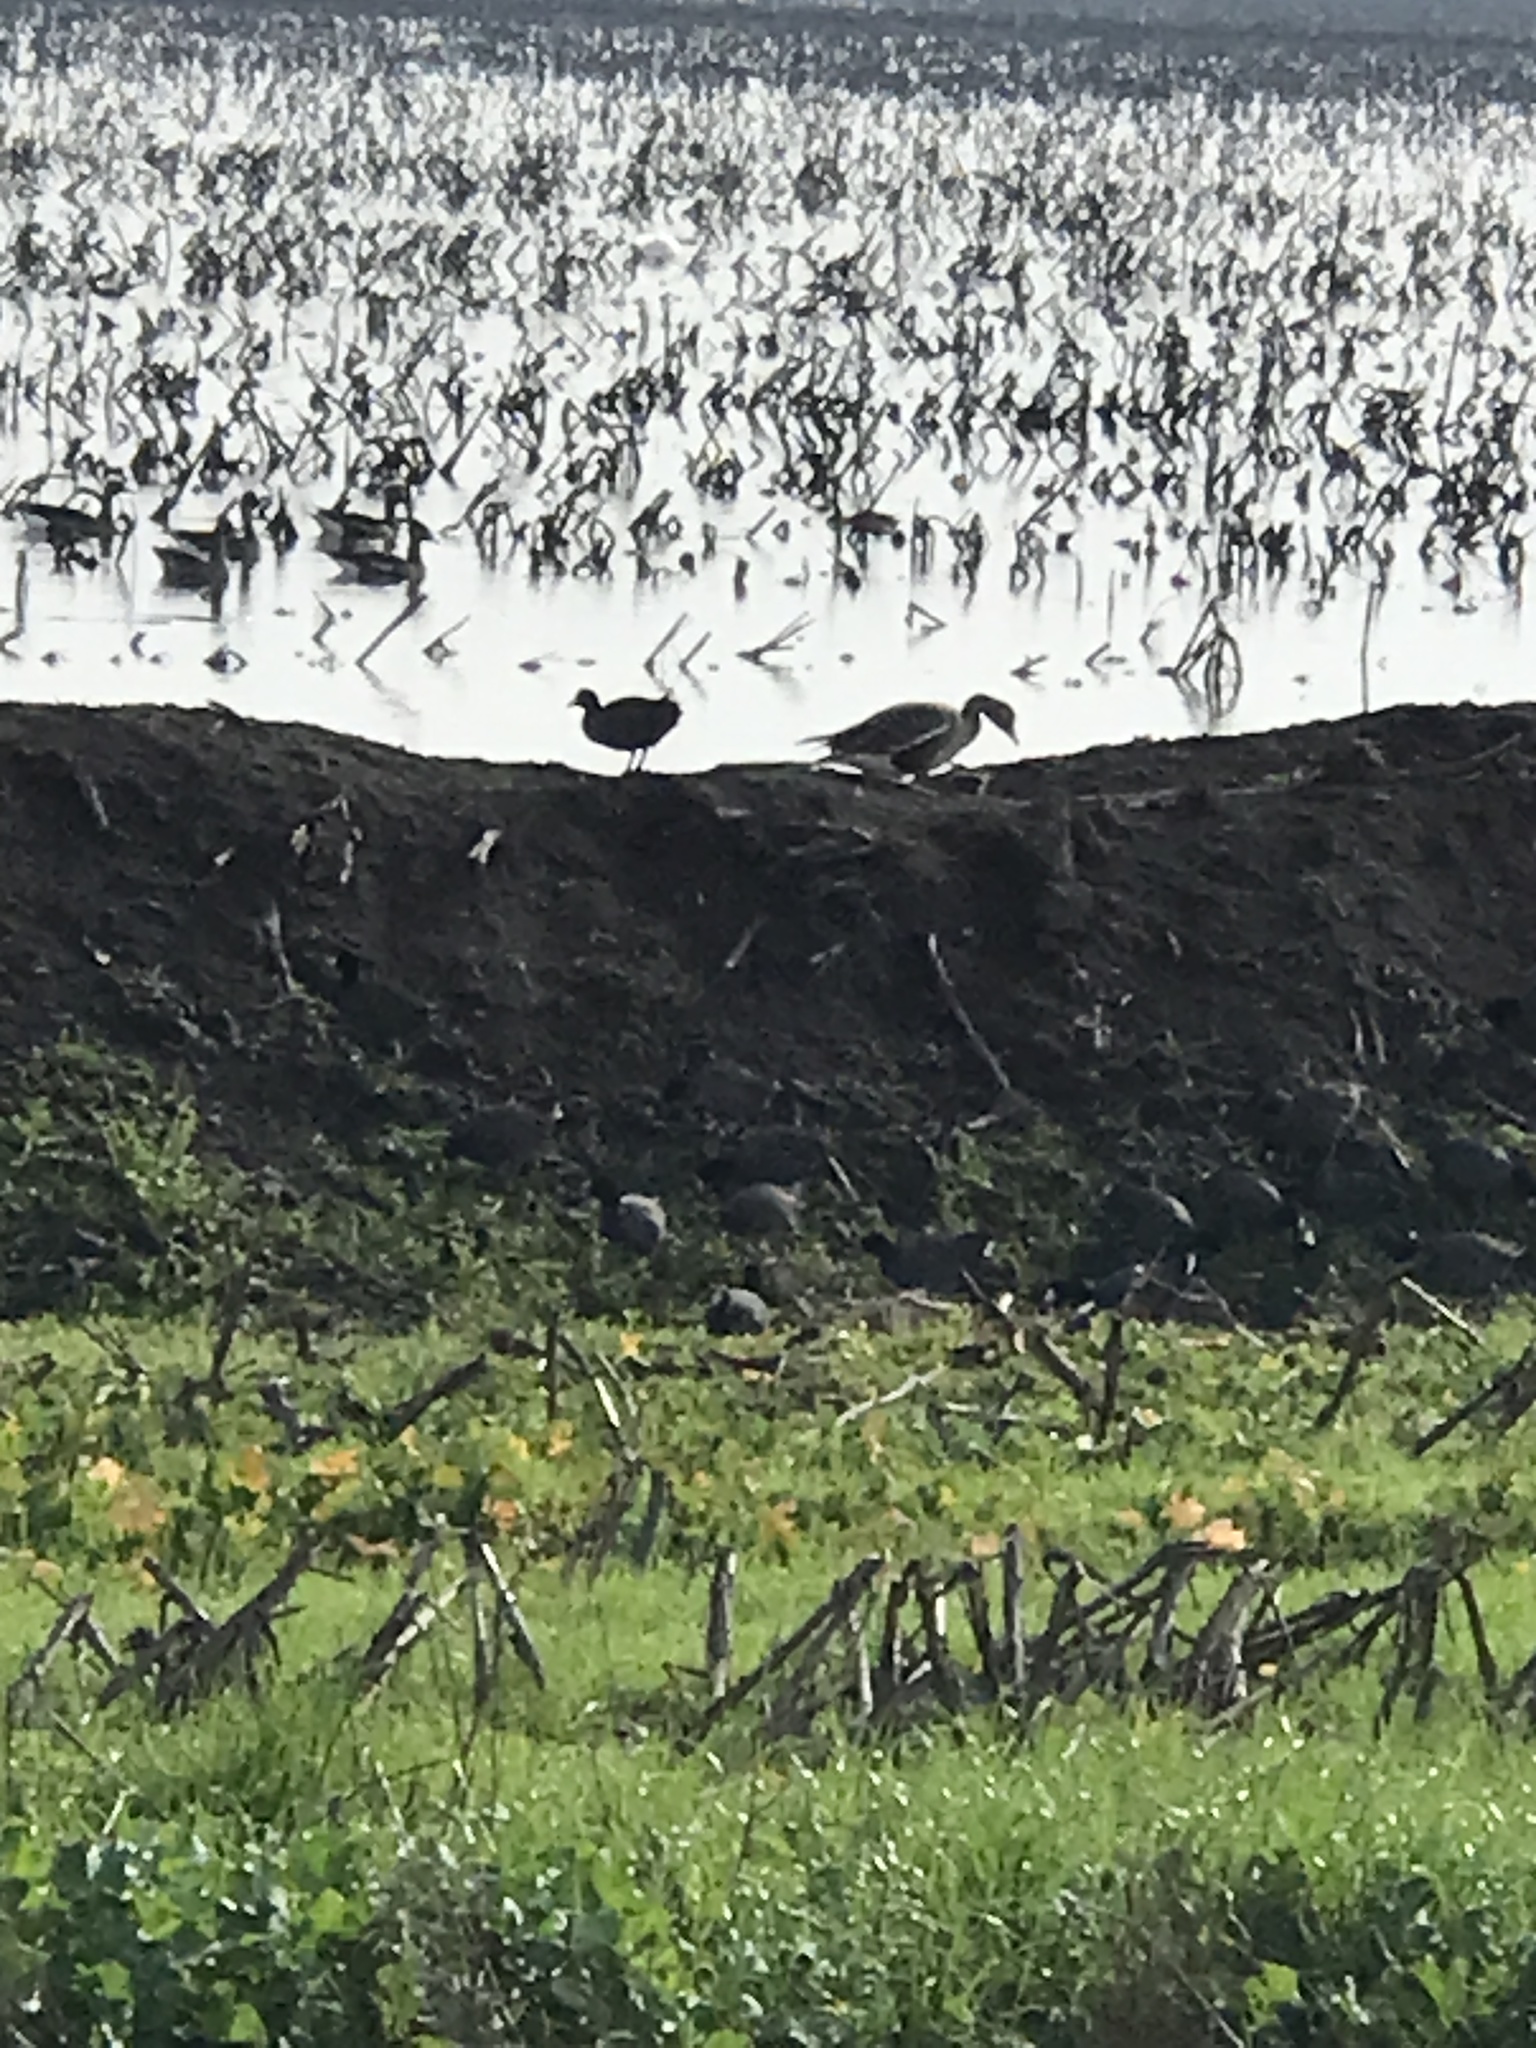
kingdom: Animalia
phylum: Chordata
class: Aves
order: Anseriformes
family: Anatidae
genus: Anser
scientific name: Anser albifrons
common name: Greater white-fronted goose
